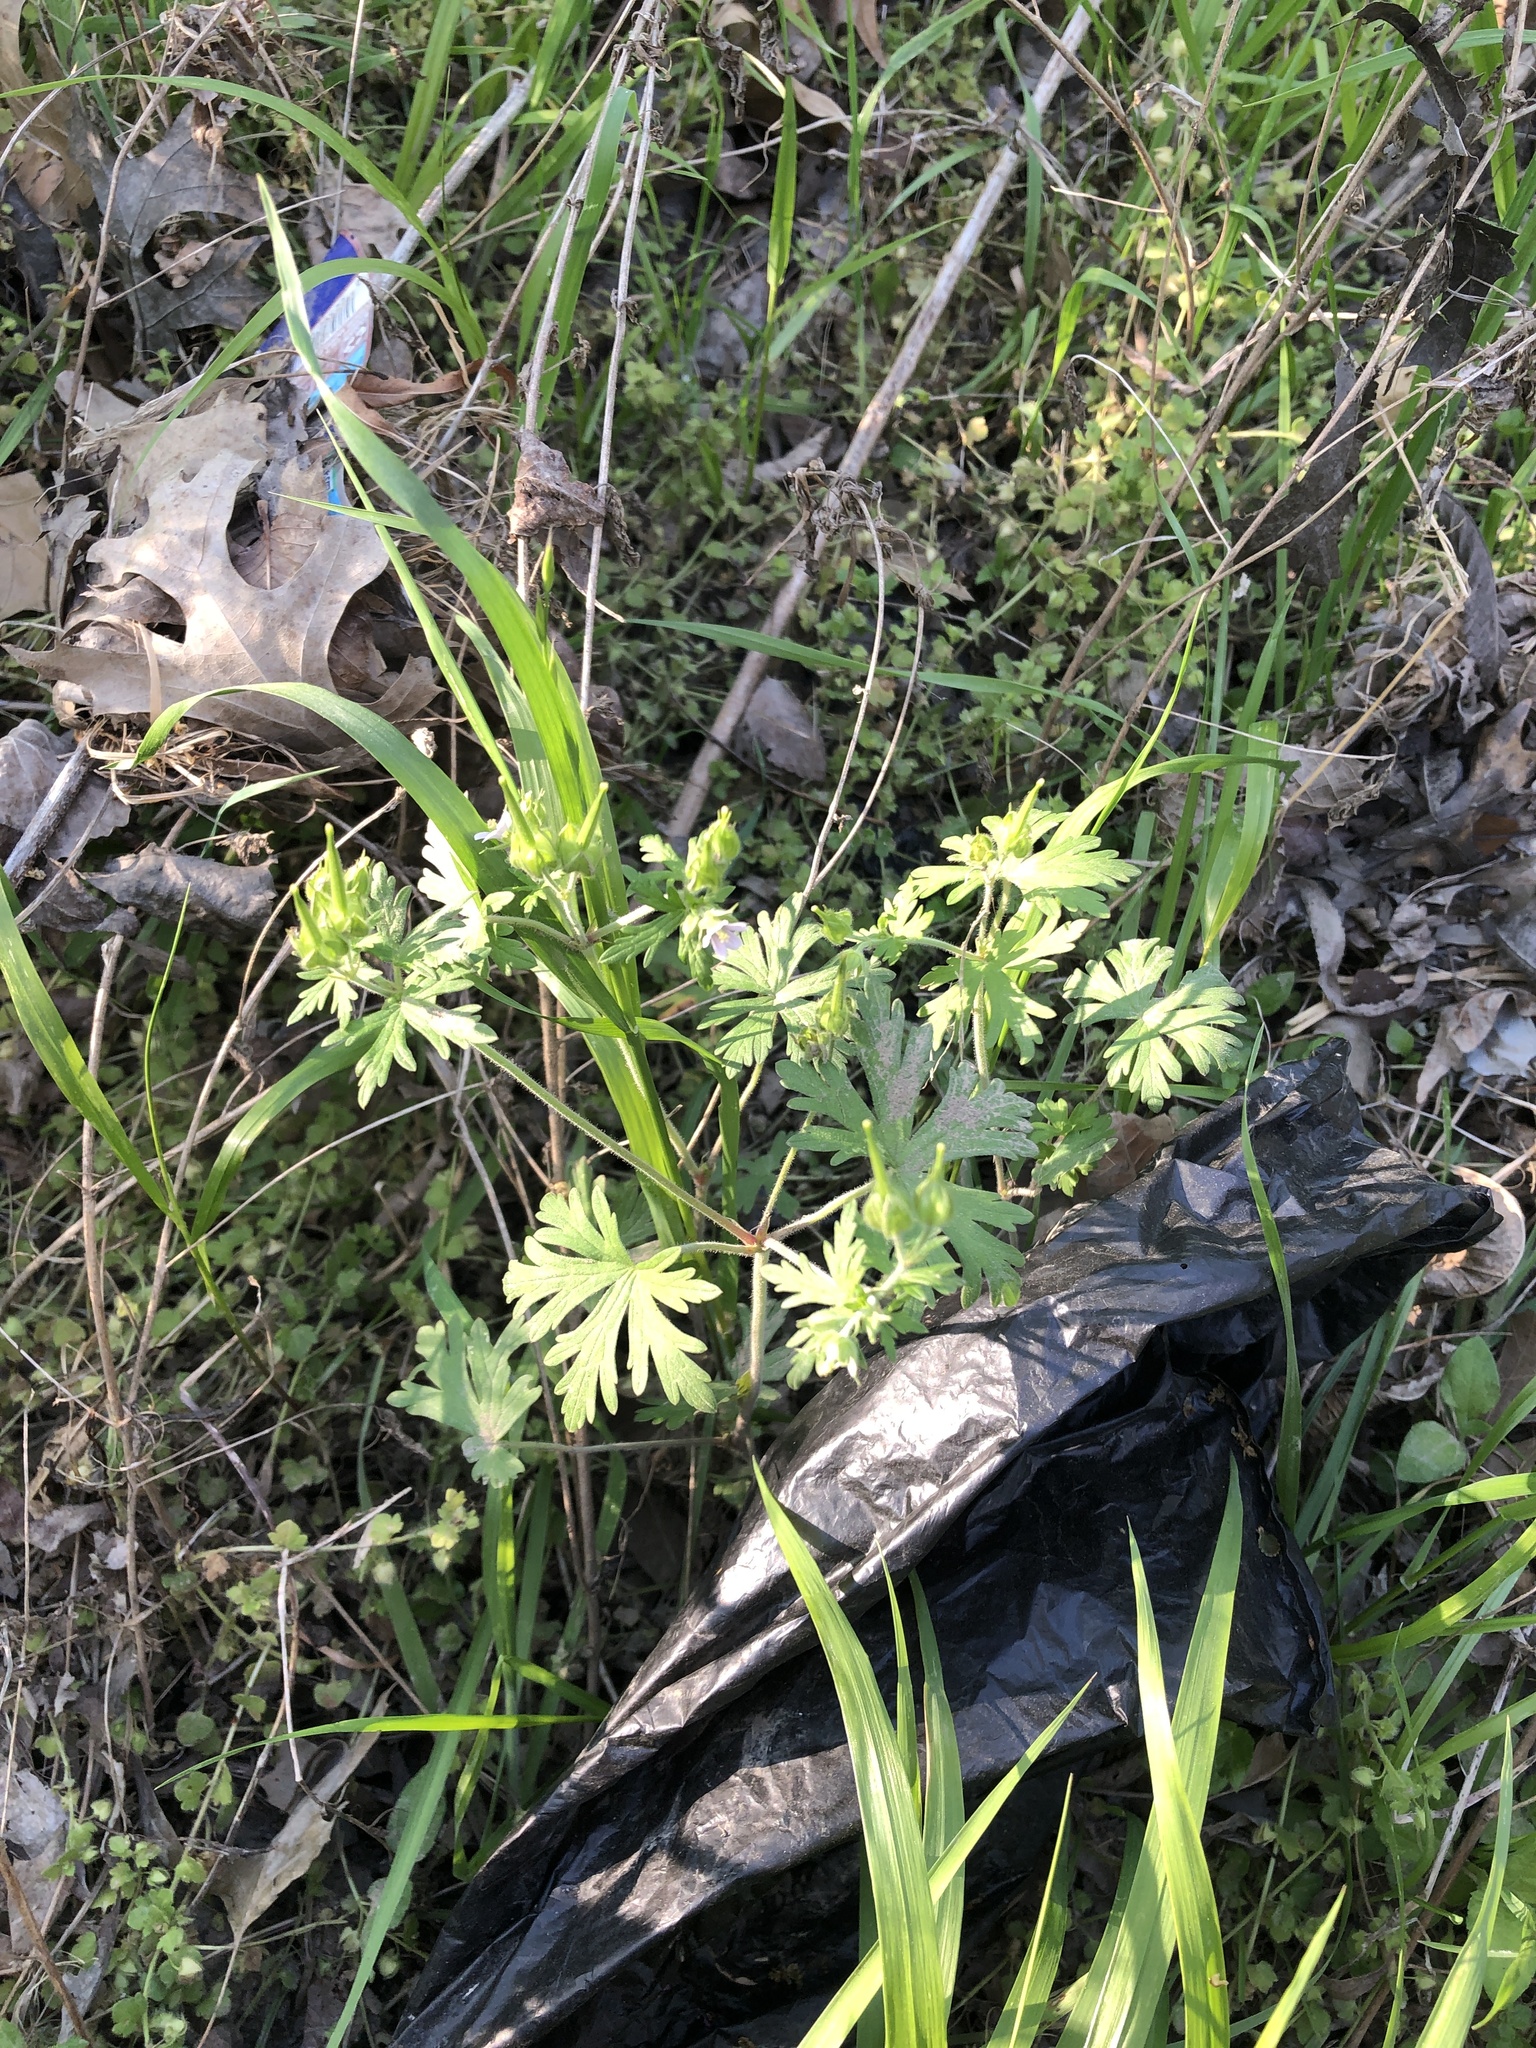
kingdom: Plantae
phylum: Tracheophyta
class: Magnoliopsida
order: Geraniales
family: Geraniaceae
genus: Geranium
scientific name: Geranium carolinianum
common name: Carolina crane's-bill
